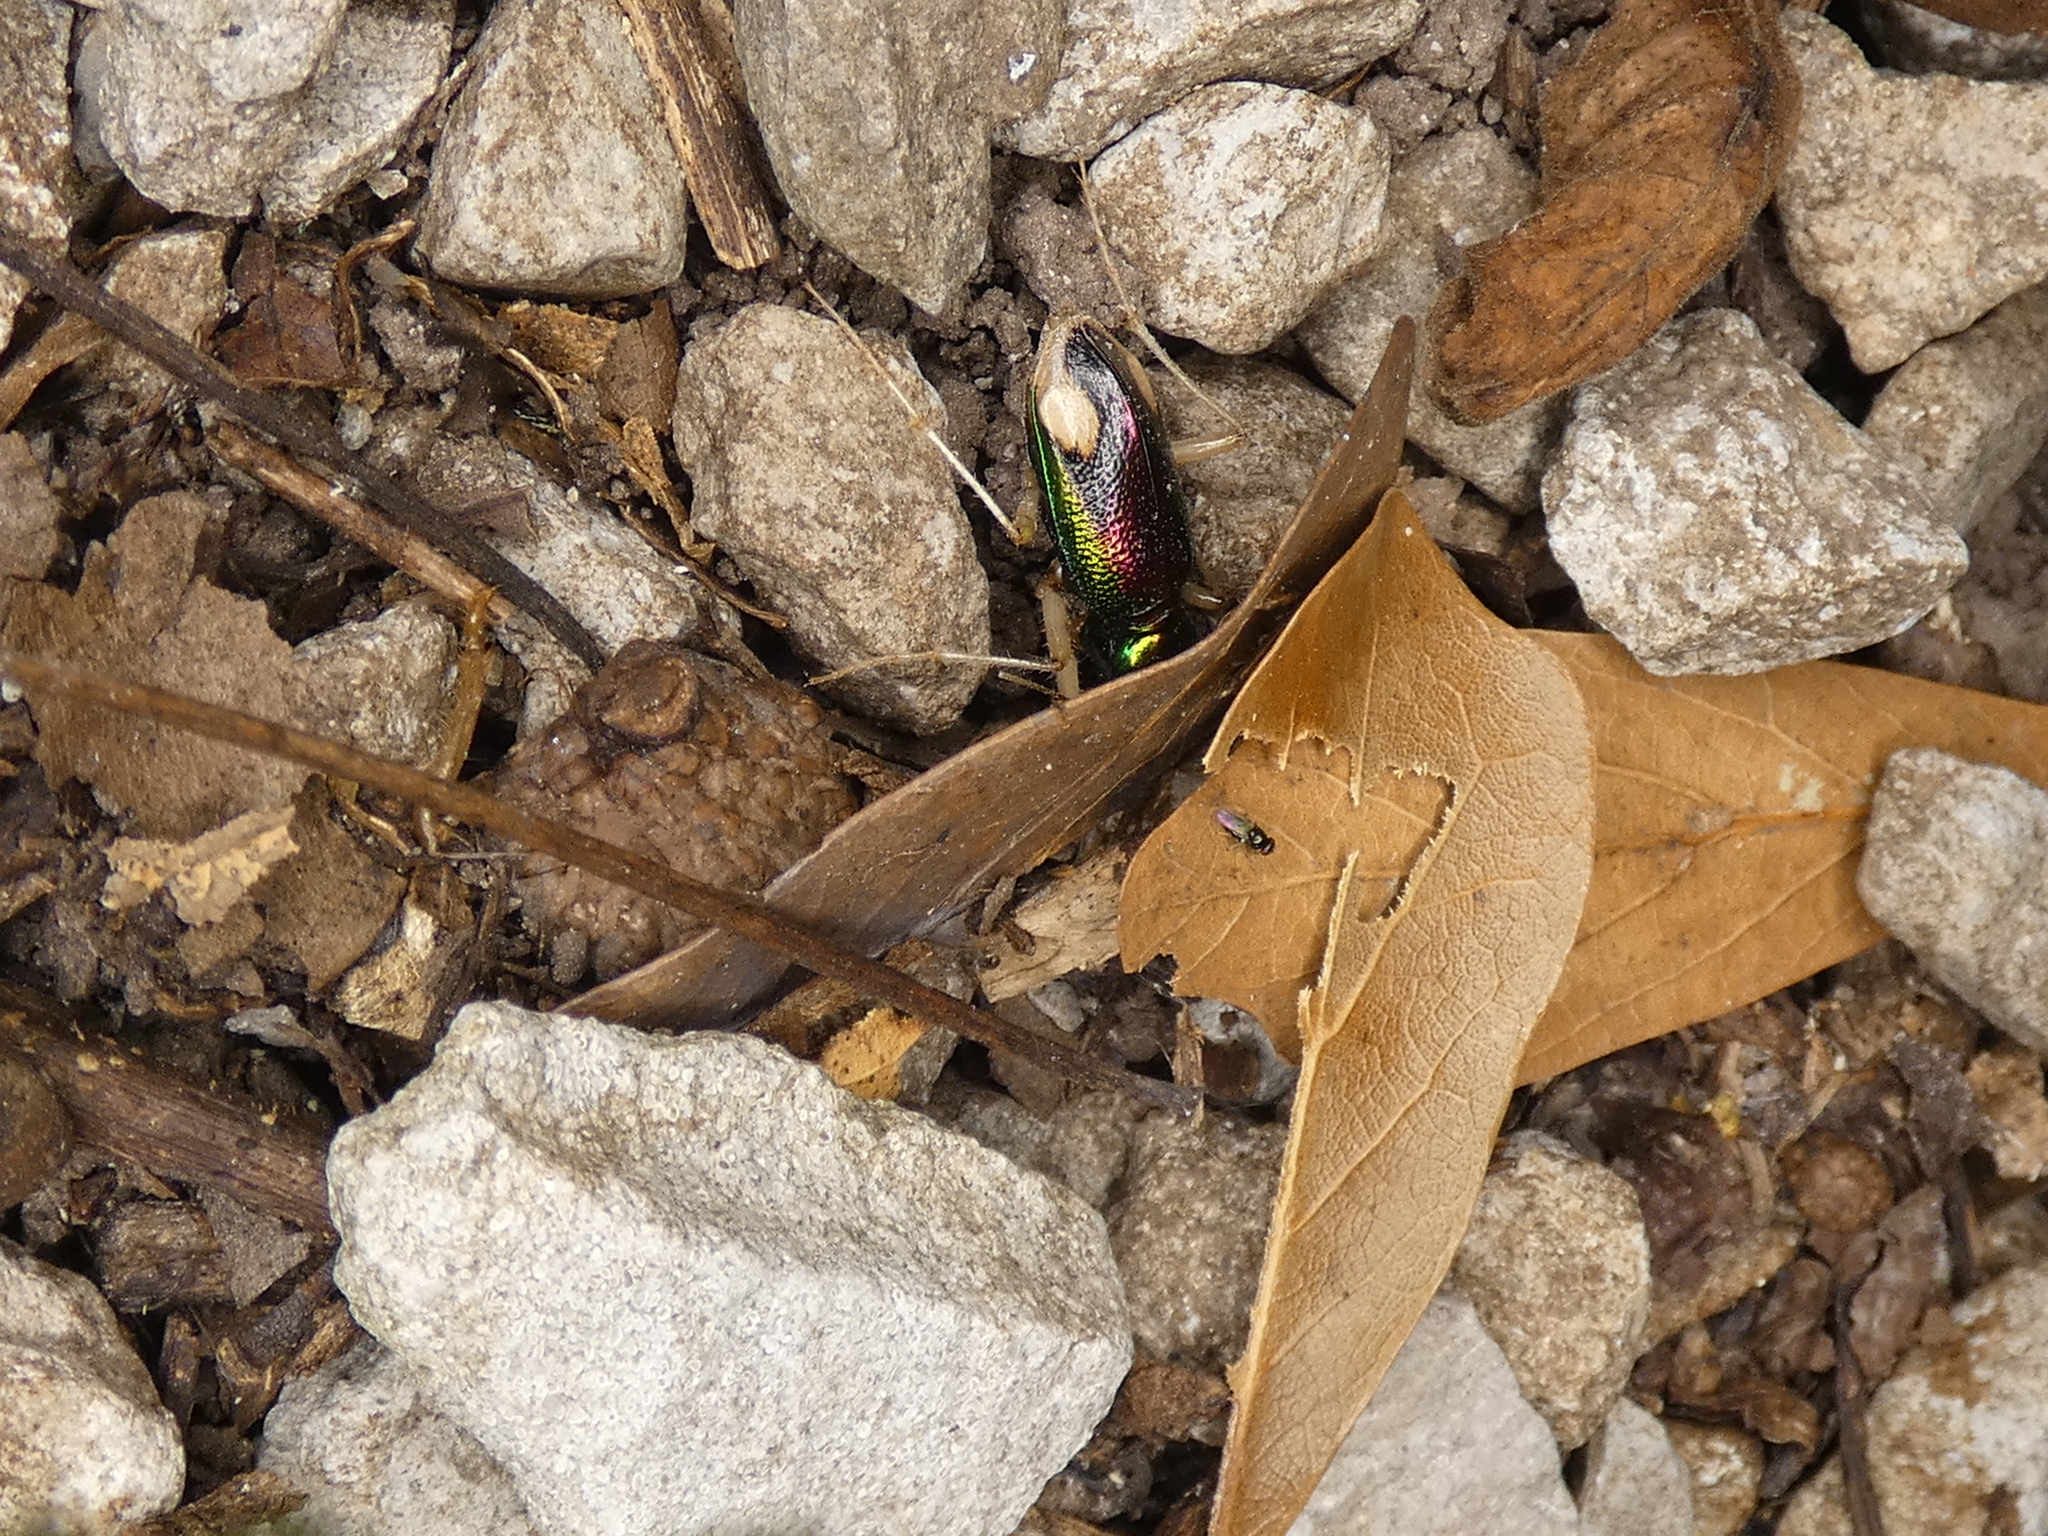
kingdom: Animalia
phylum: Arthropoda
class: Insecta
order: Coleoptera
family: Carabidae
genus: Tetracha
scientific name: Tetracha carolina
